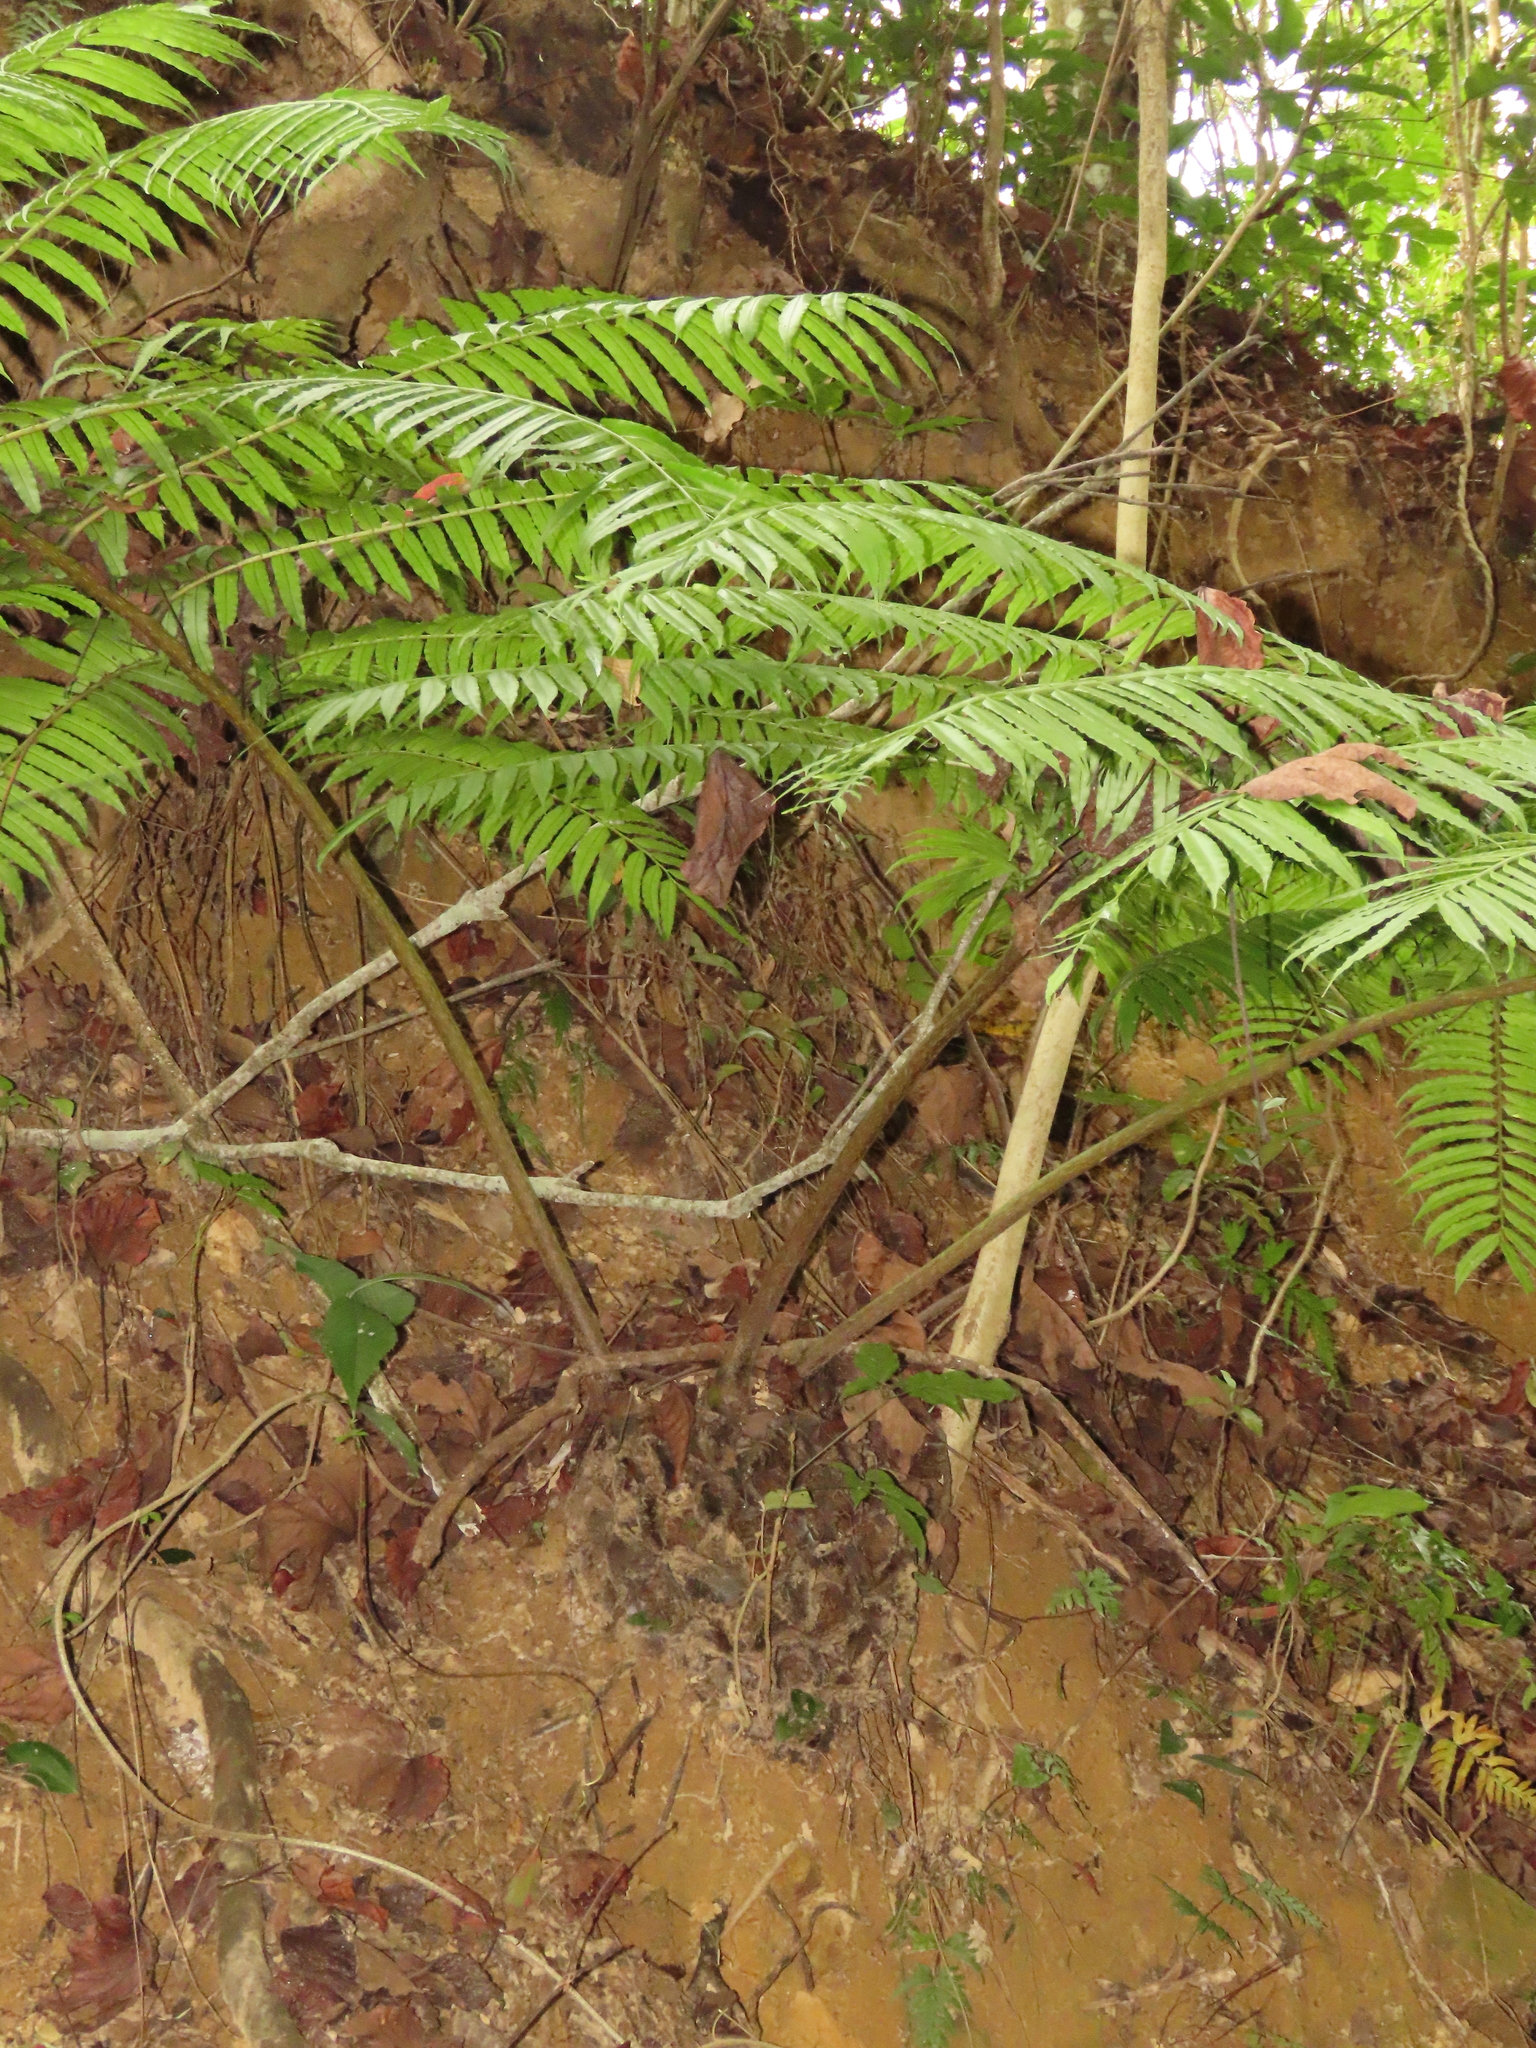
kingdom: Plantae
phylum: Tracheophyta
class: Polypodiopsida
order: Marattiales
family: Marattiaceae
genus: Angiopteris
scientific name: Angiopteris lygodiifolia
